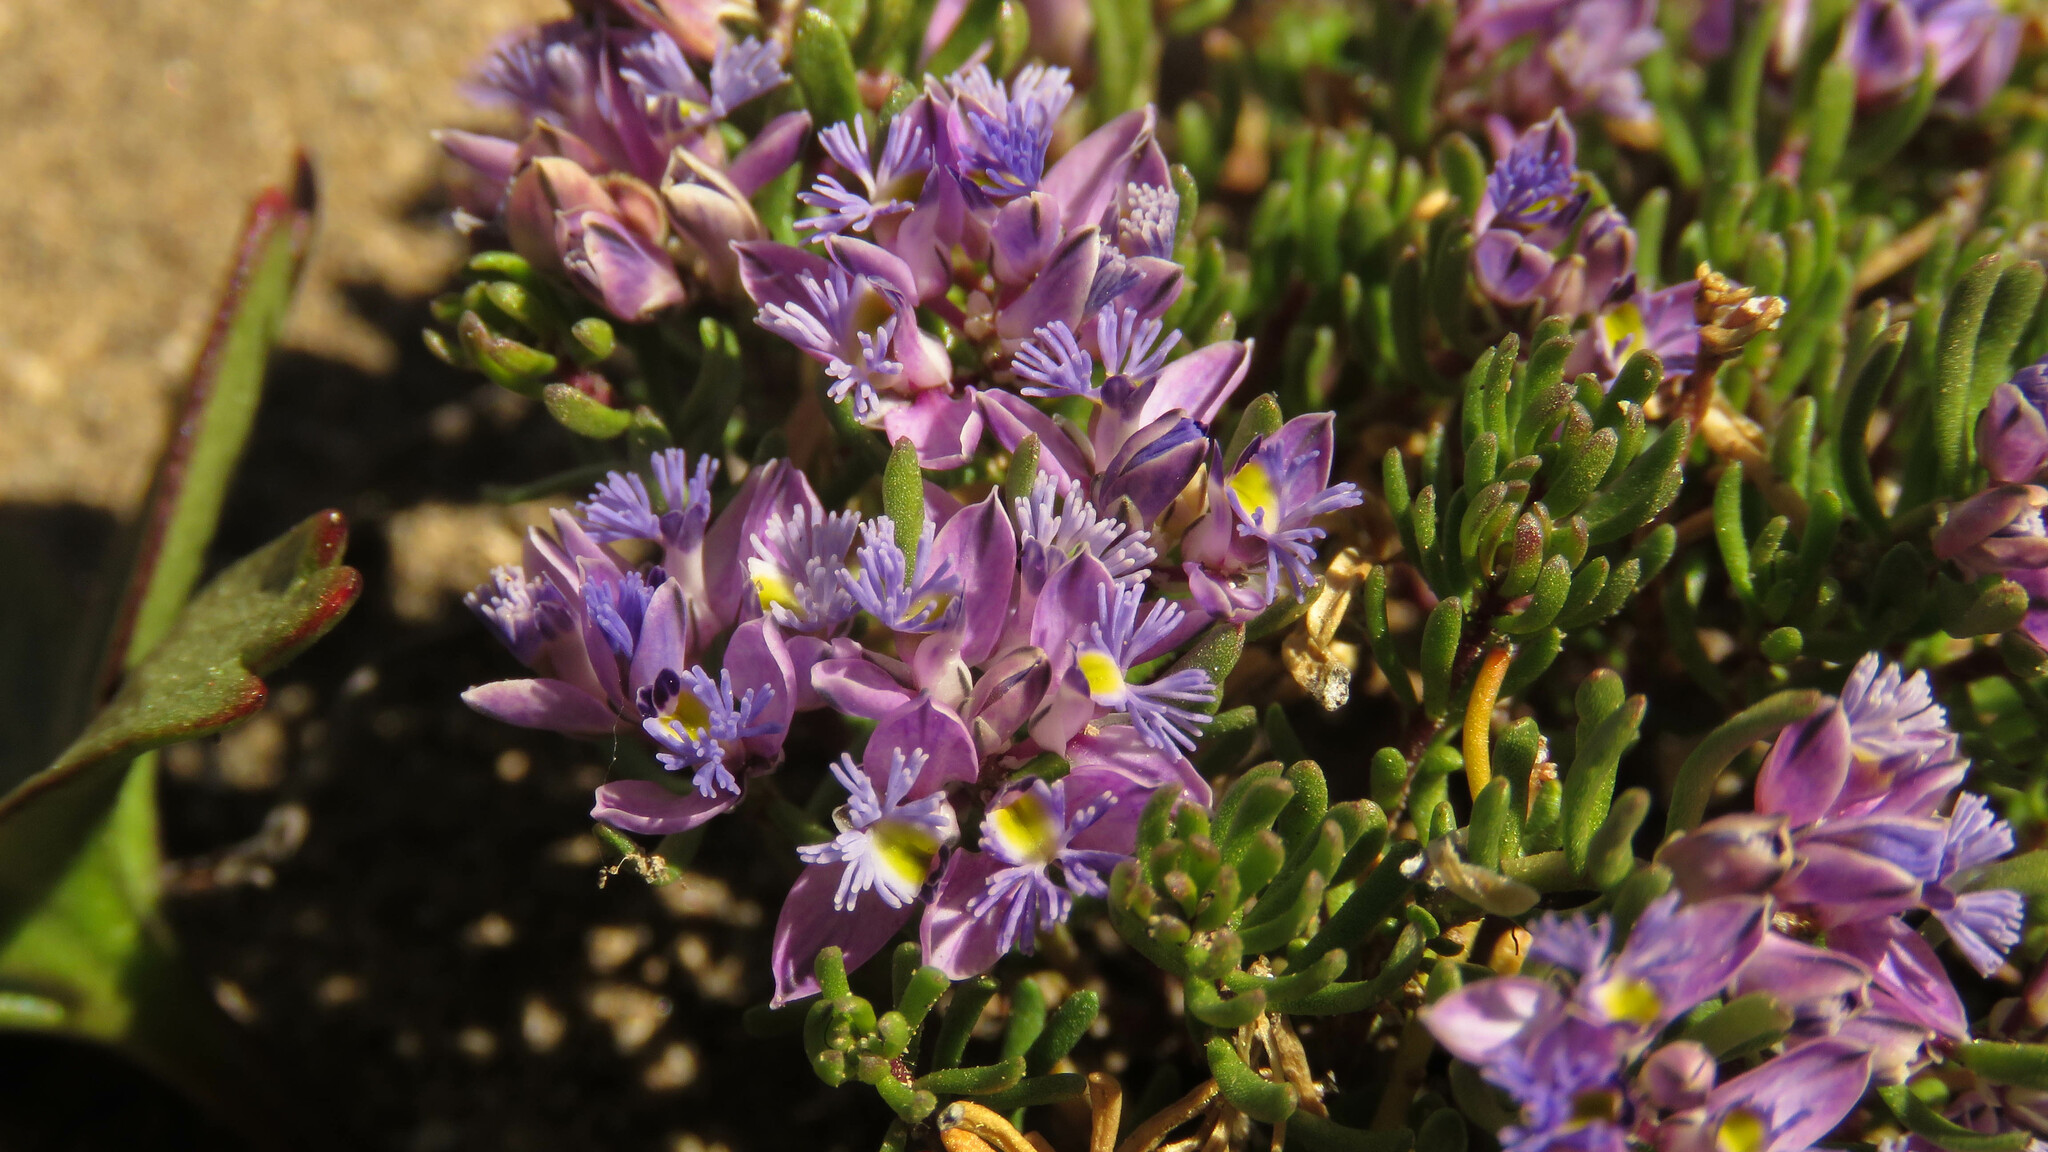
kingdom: Plantae
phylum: Tracheophyta
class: Magnoliopsida
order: Fabales
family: Polygalaceae
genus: Acanthocladus
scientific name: Acanthocladus tehuelchum
